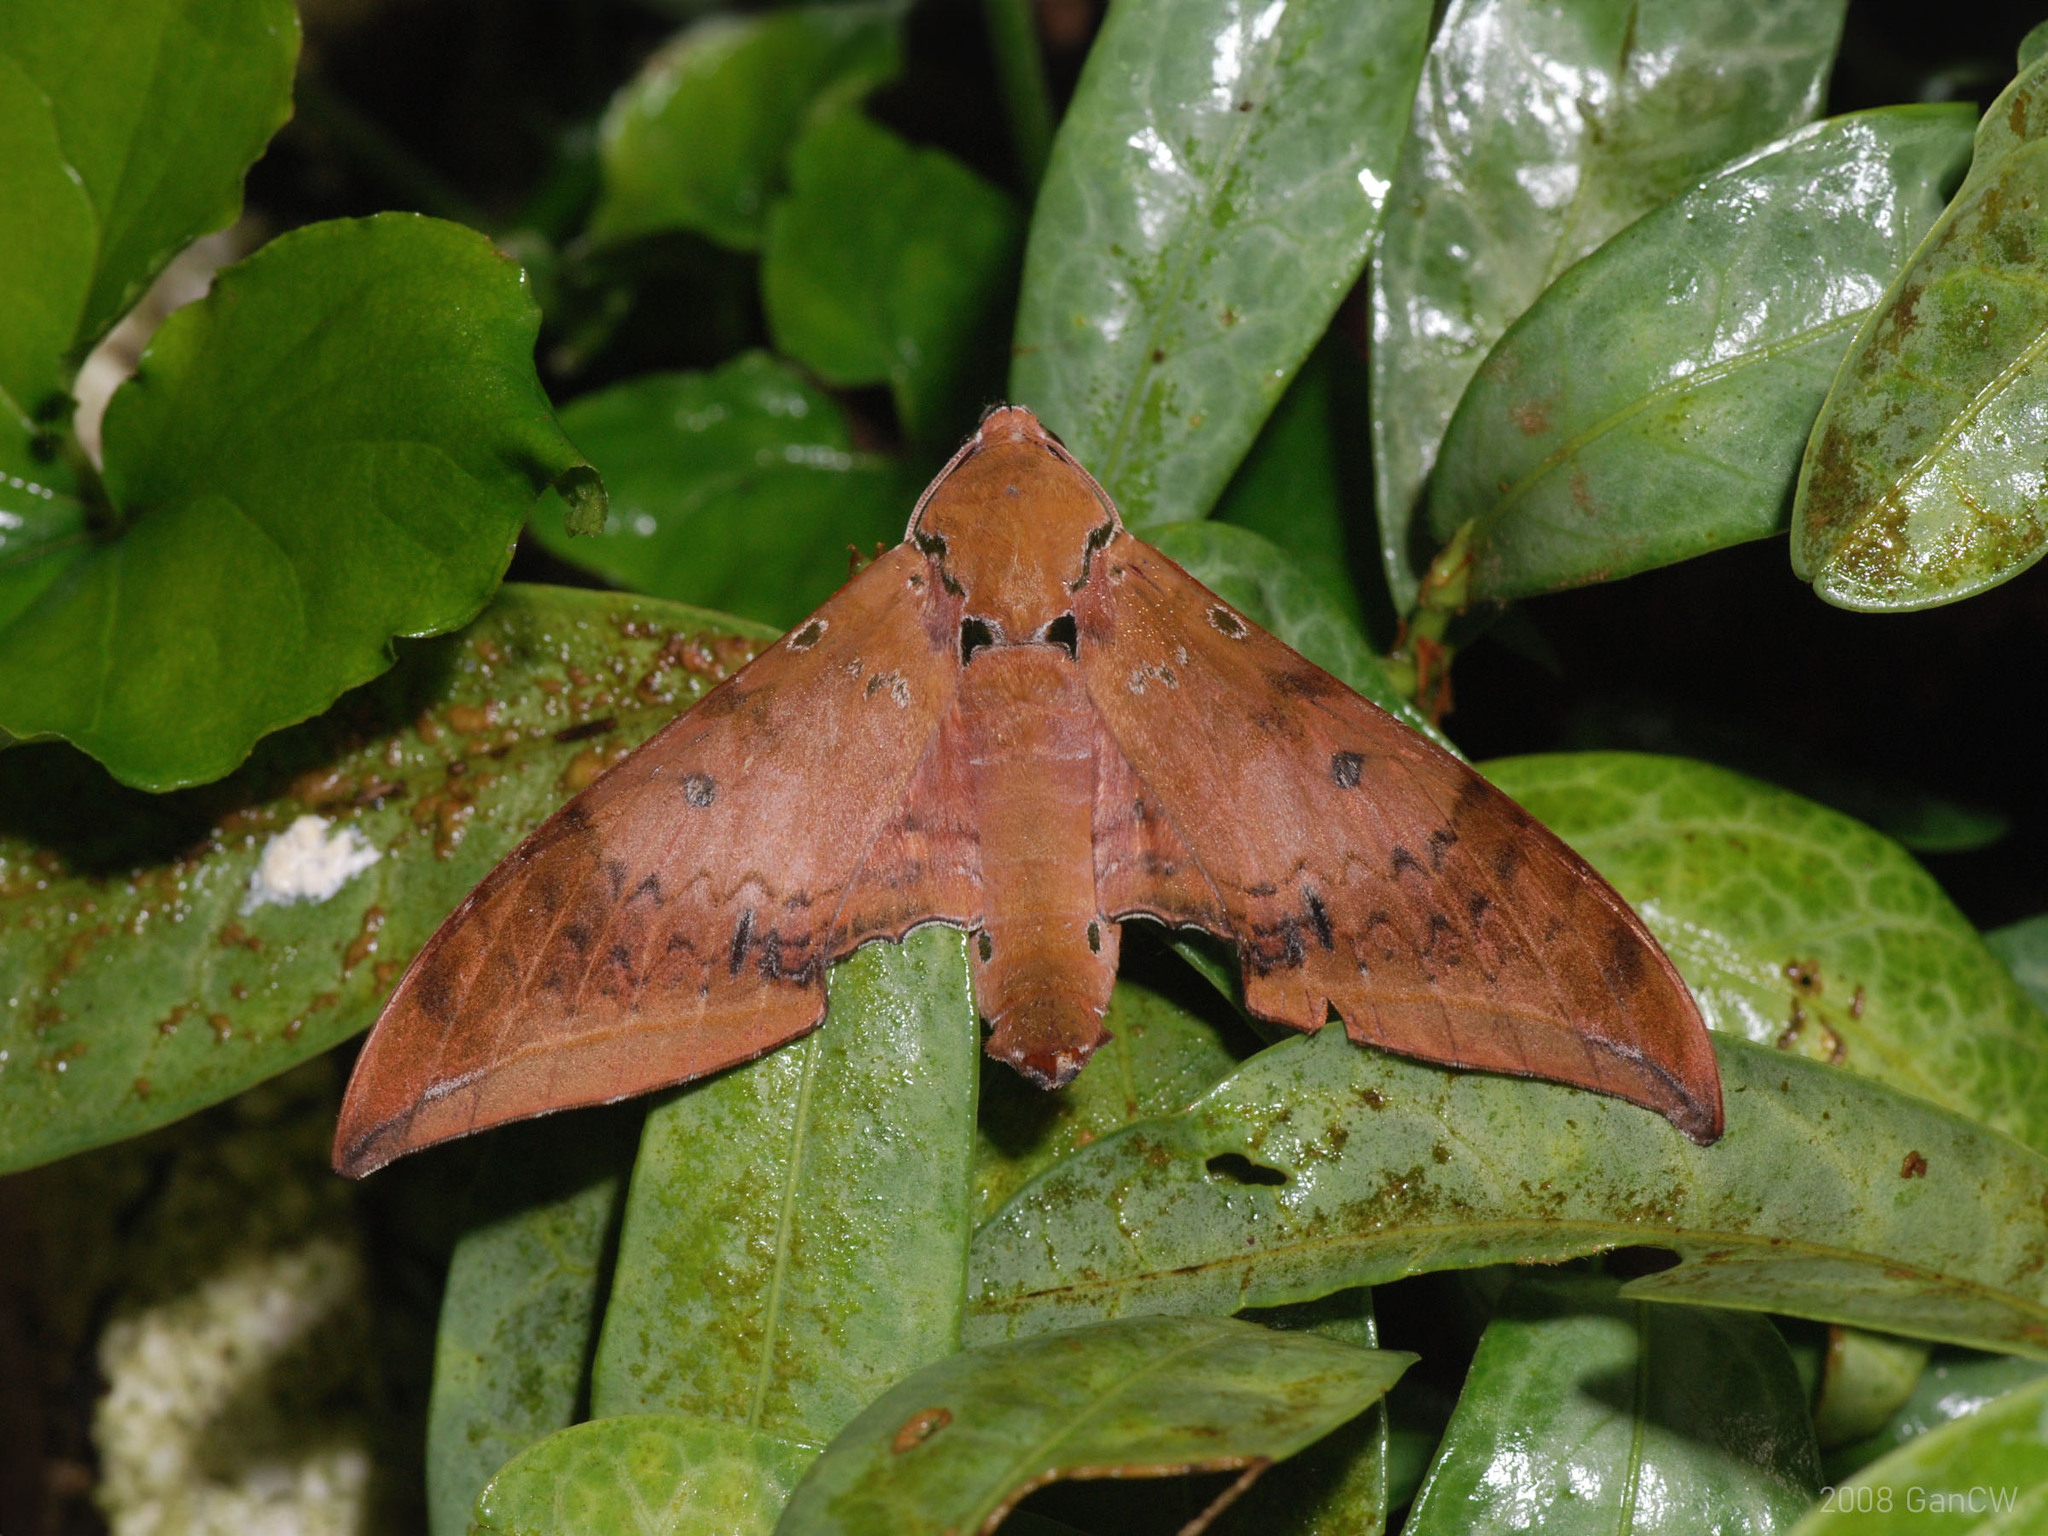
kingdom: Animalia
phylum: Arthropoda
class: Insecta
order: Lepidoptera
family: Sphingidae
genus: Ambulyx
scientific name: Ambulyx moorei
